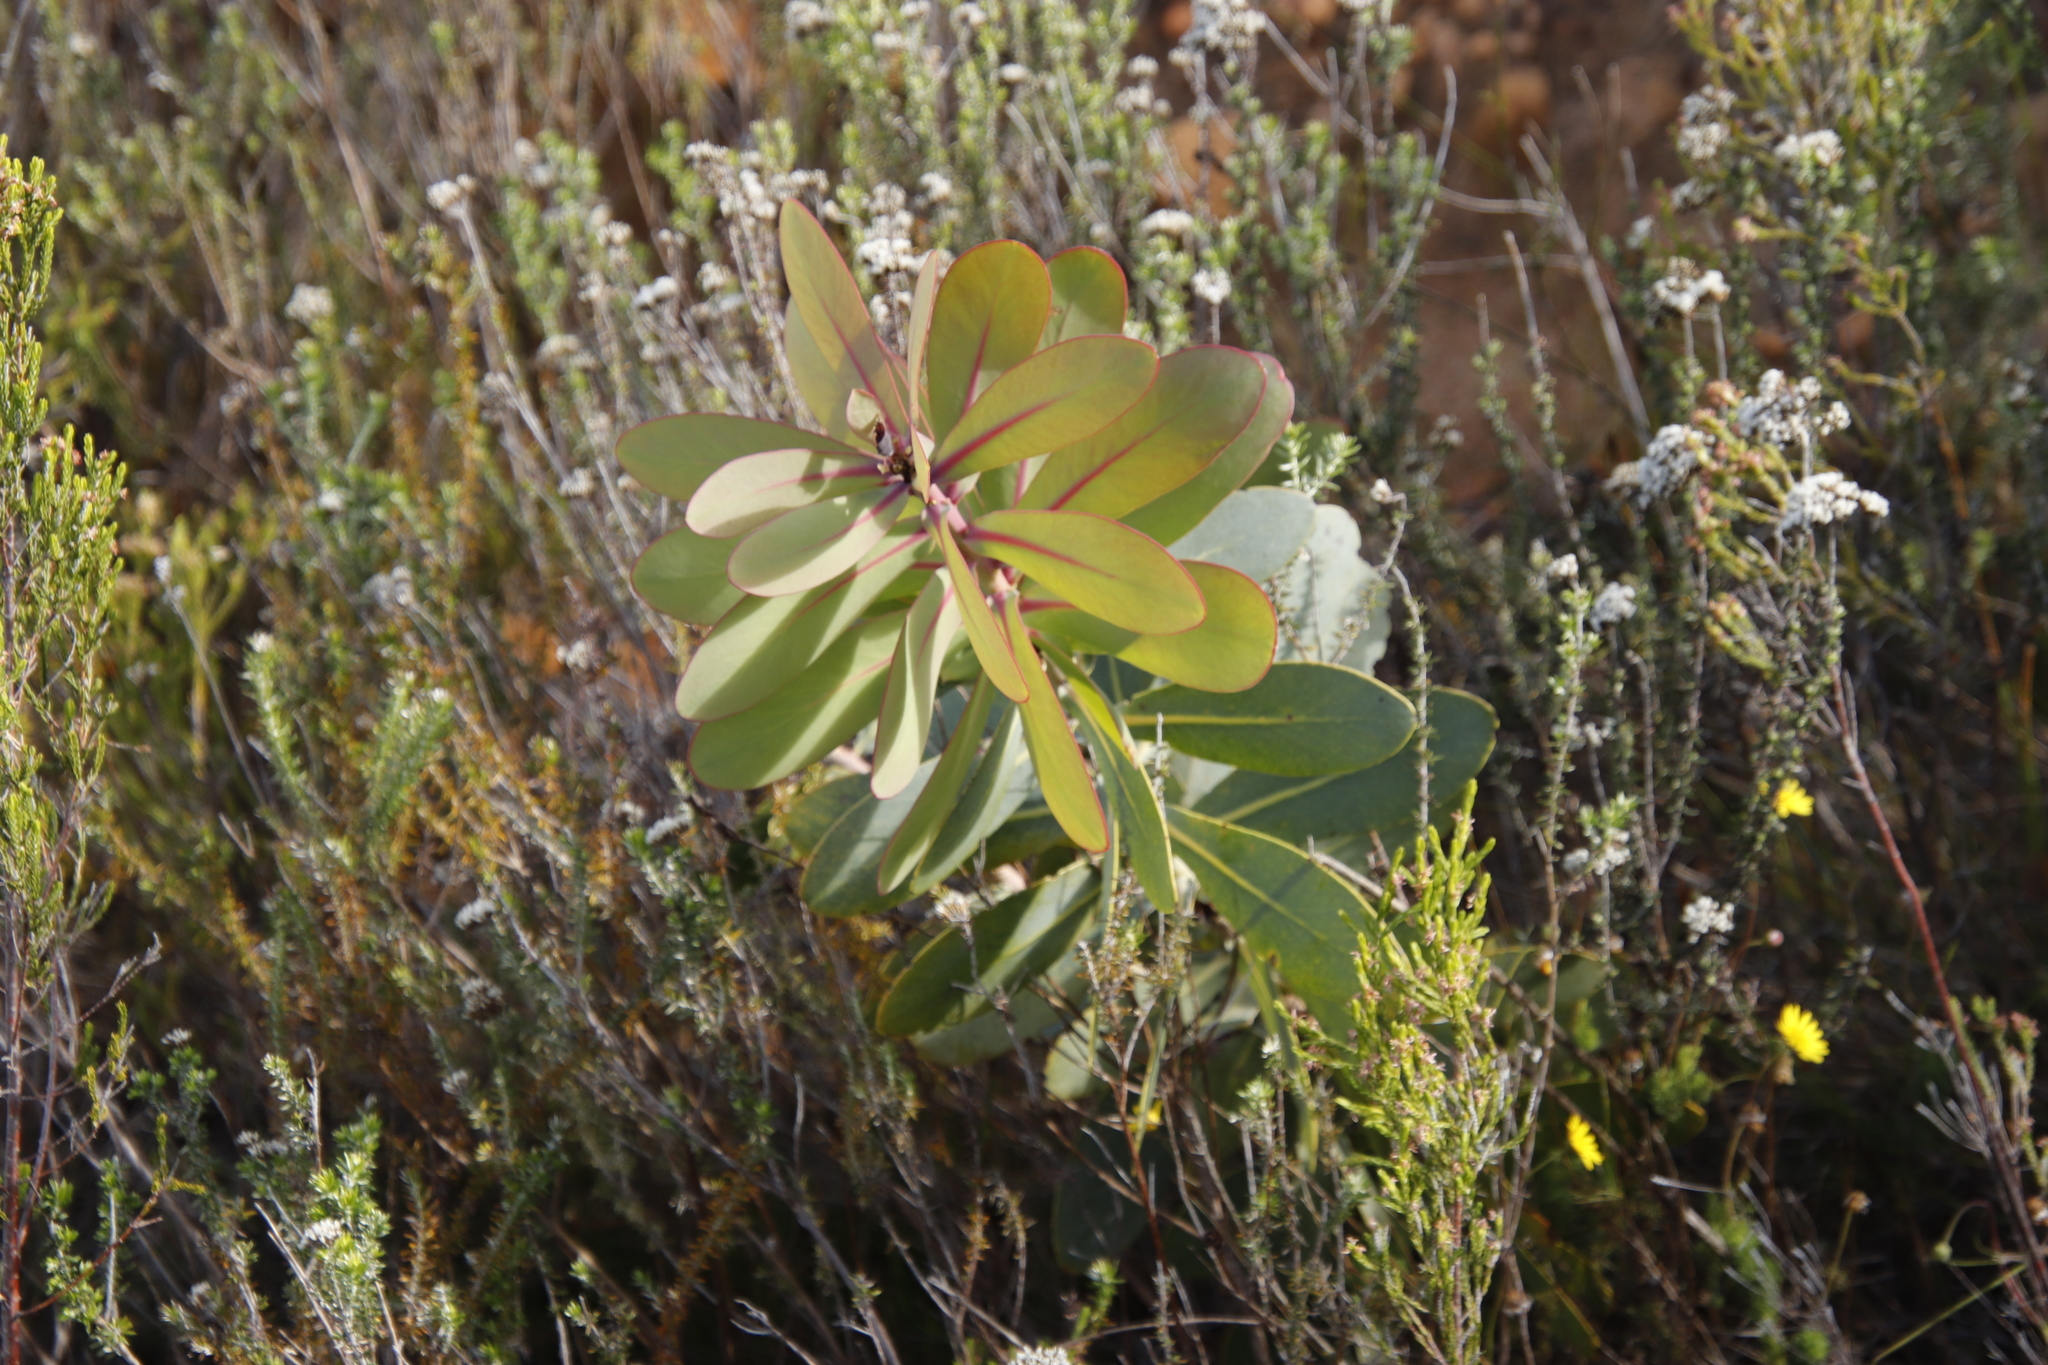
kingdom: Plantae
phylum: Tracheophyta
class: Magnoliopsida
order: Proteales
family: Proteaceae
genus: Protea
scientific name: Protea nitida
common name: Tree protea
